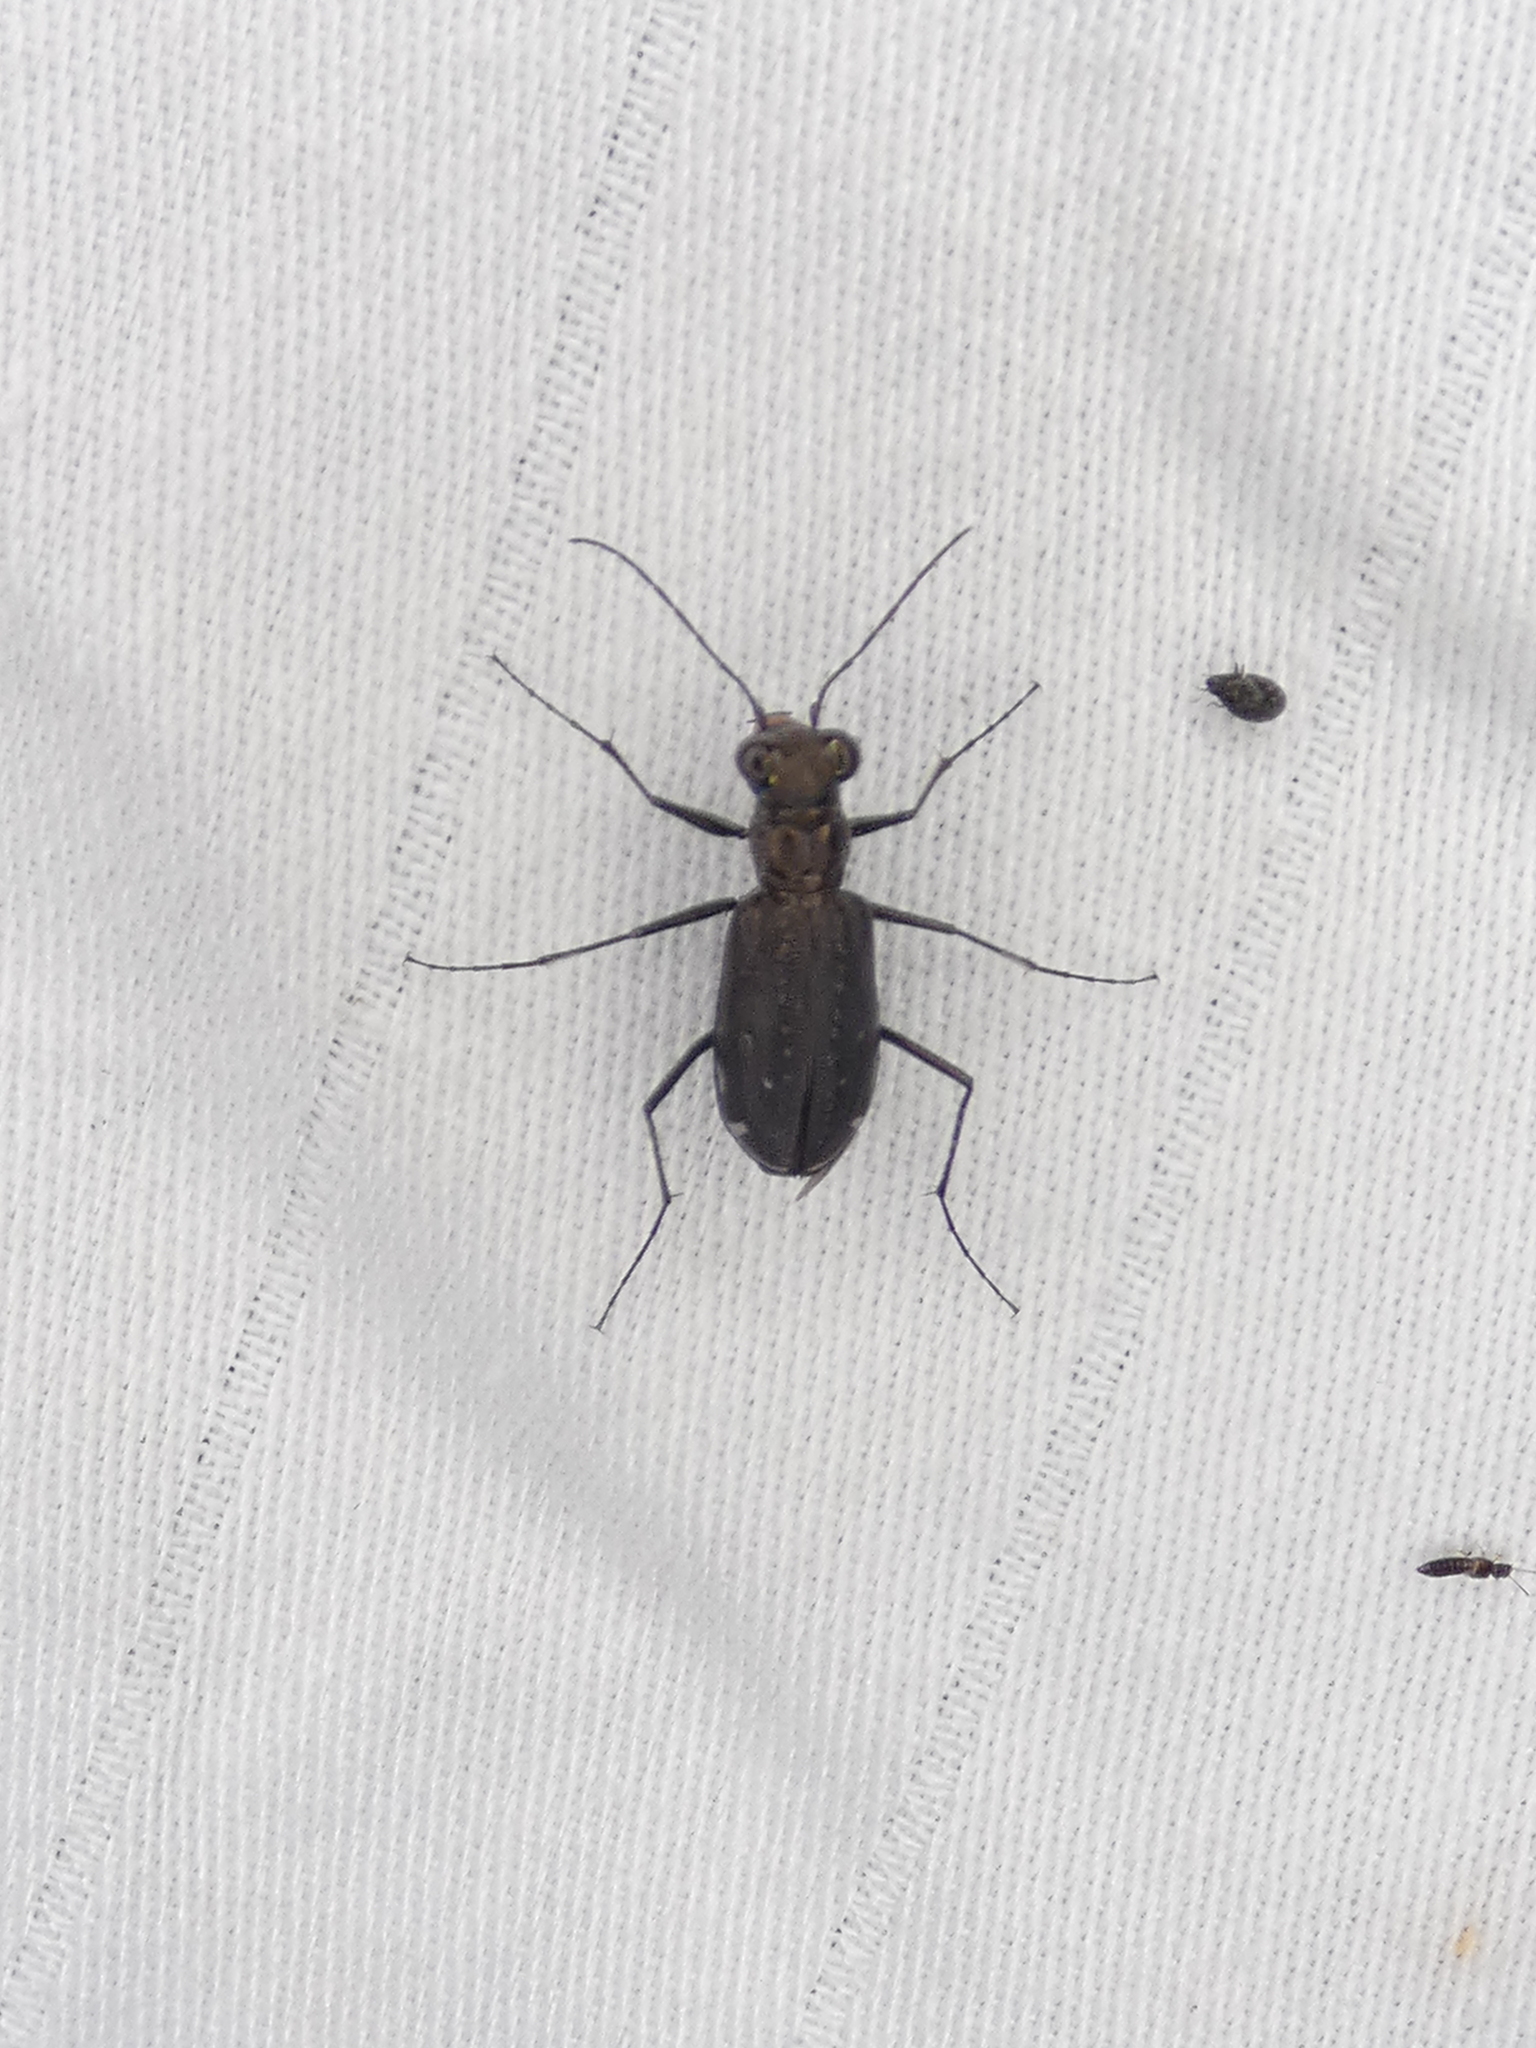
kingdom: Animalia
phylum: Arthropoda
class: Insecta
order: Coleoptera
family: Carabidae
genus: Cicindela
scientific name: Cicindela punctulata
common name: Punctured tiger beetle
